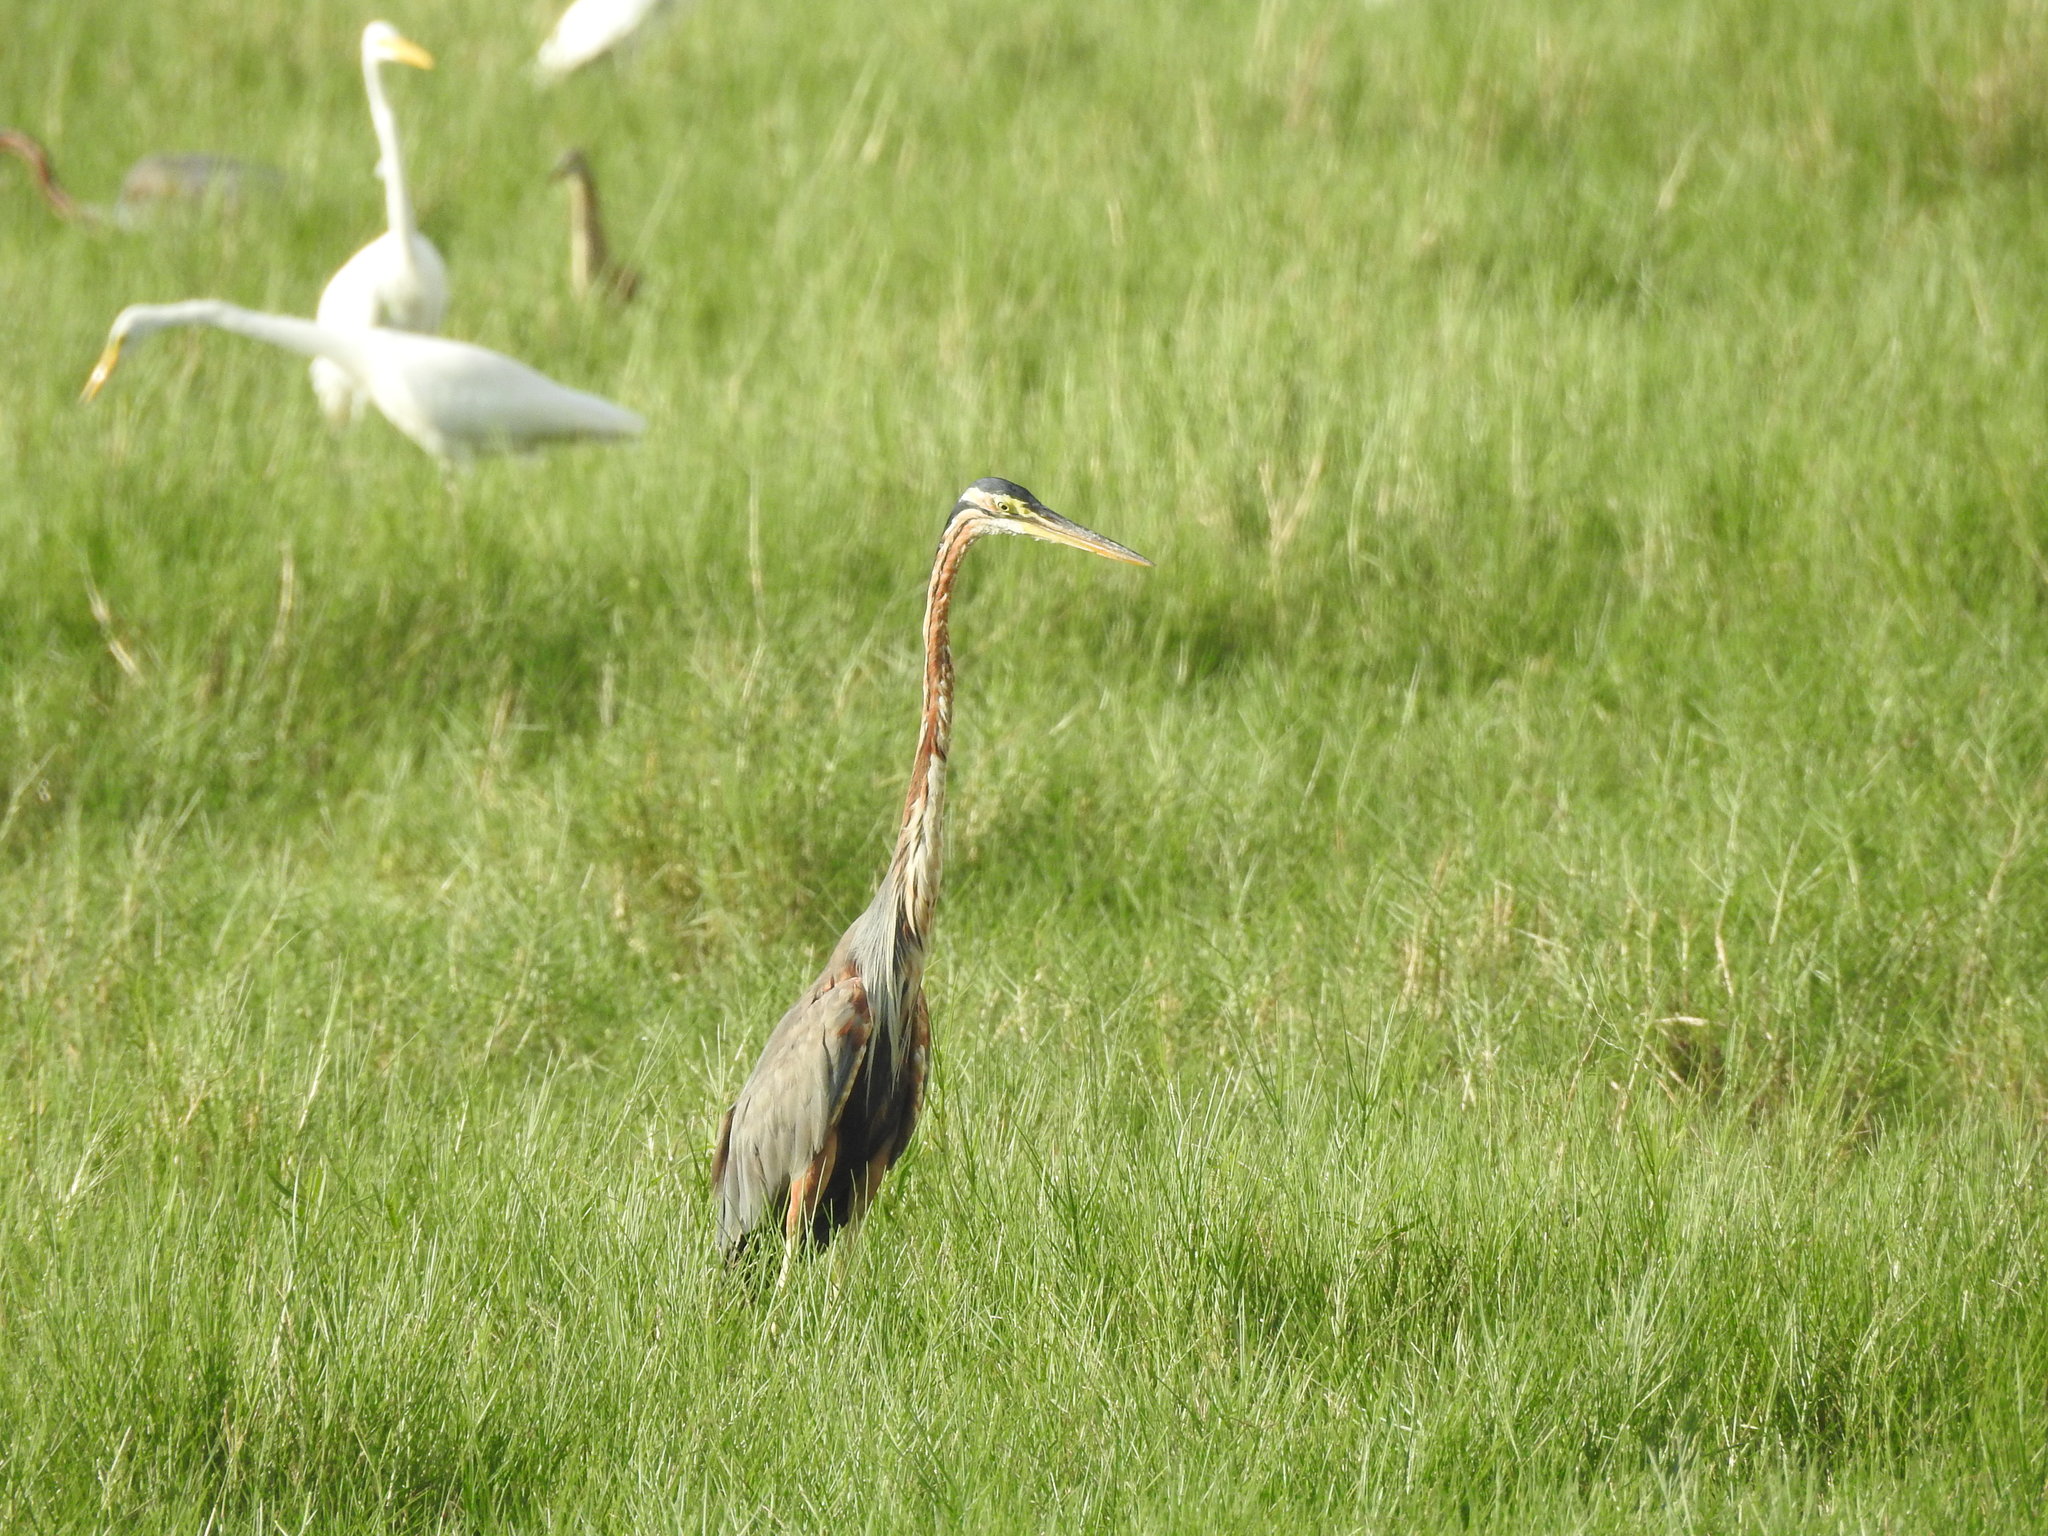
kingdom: Animalia
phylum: Chordata
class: Aves
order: Pelecaniformes
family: Ardeidae
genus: Ardea
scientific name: Ardea purpurea
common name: Purple heron
